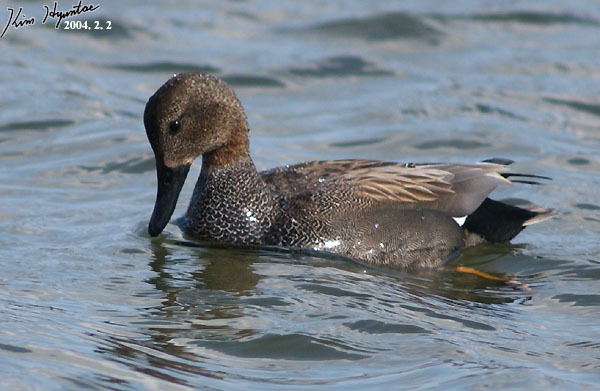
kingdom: Animalia
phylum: Chordata
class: Aves
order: Anseriformes
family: Anatidae
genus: Mareca
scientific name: Mareca strepera
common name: Gadwall
